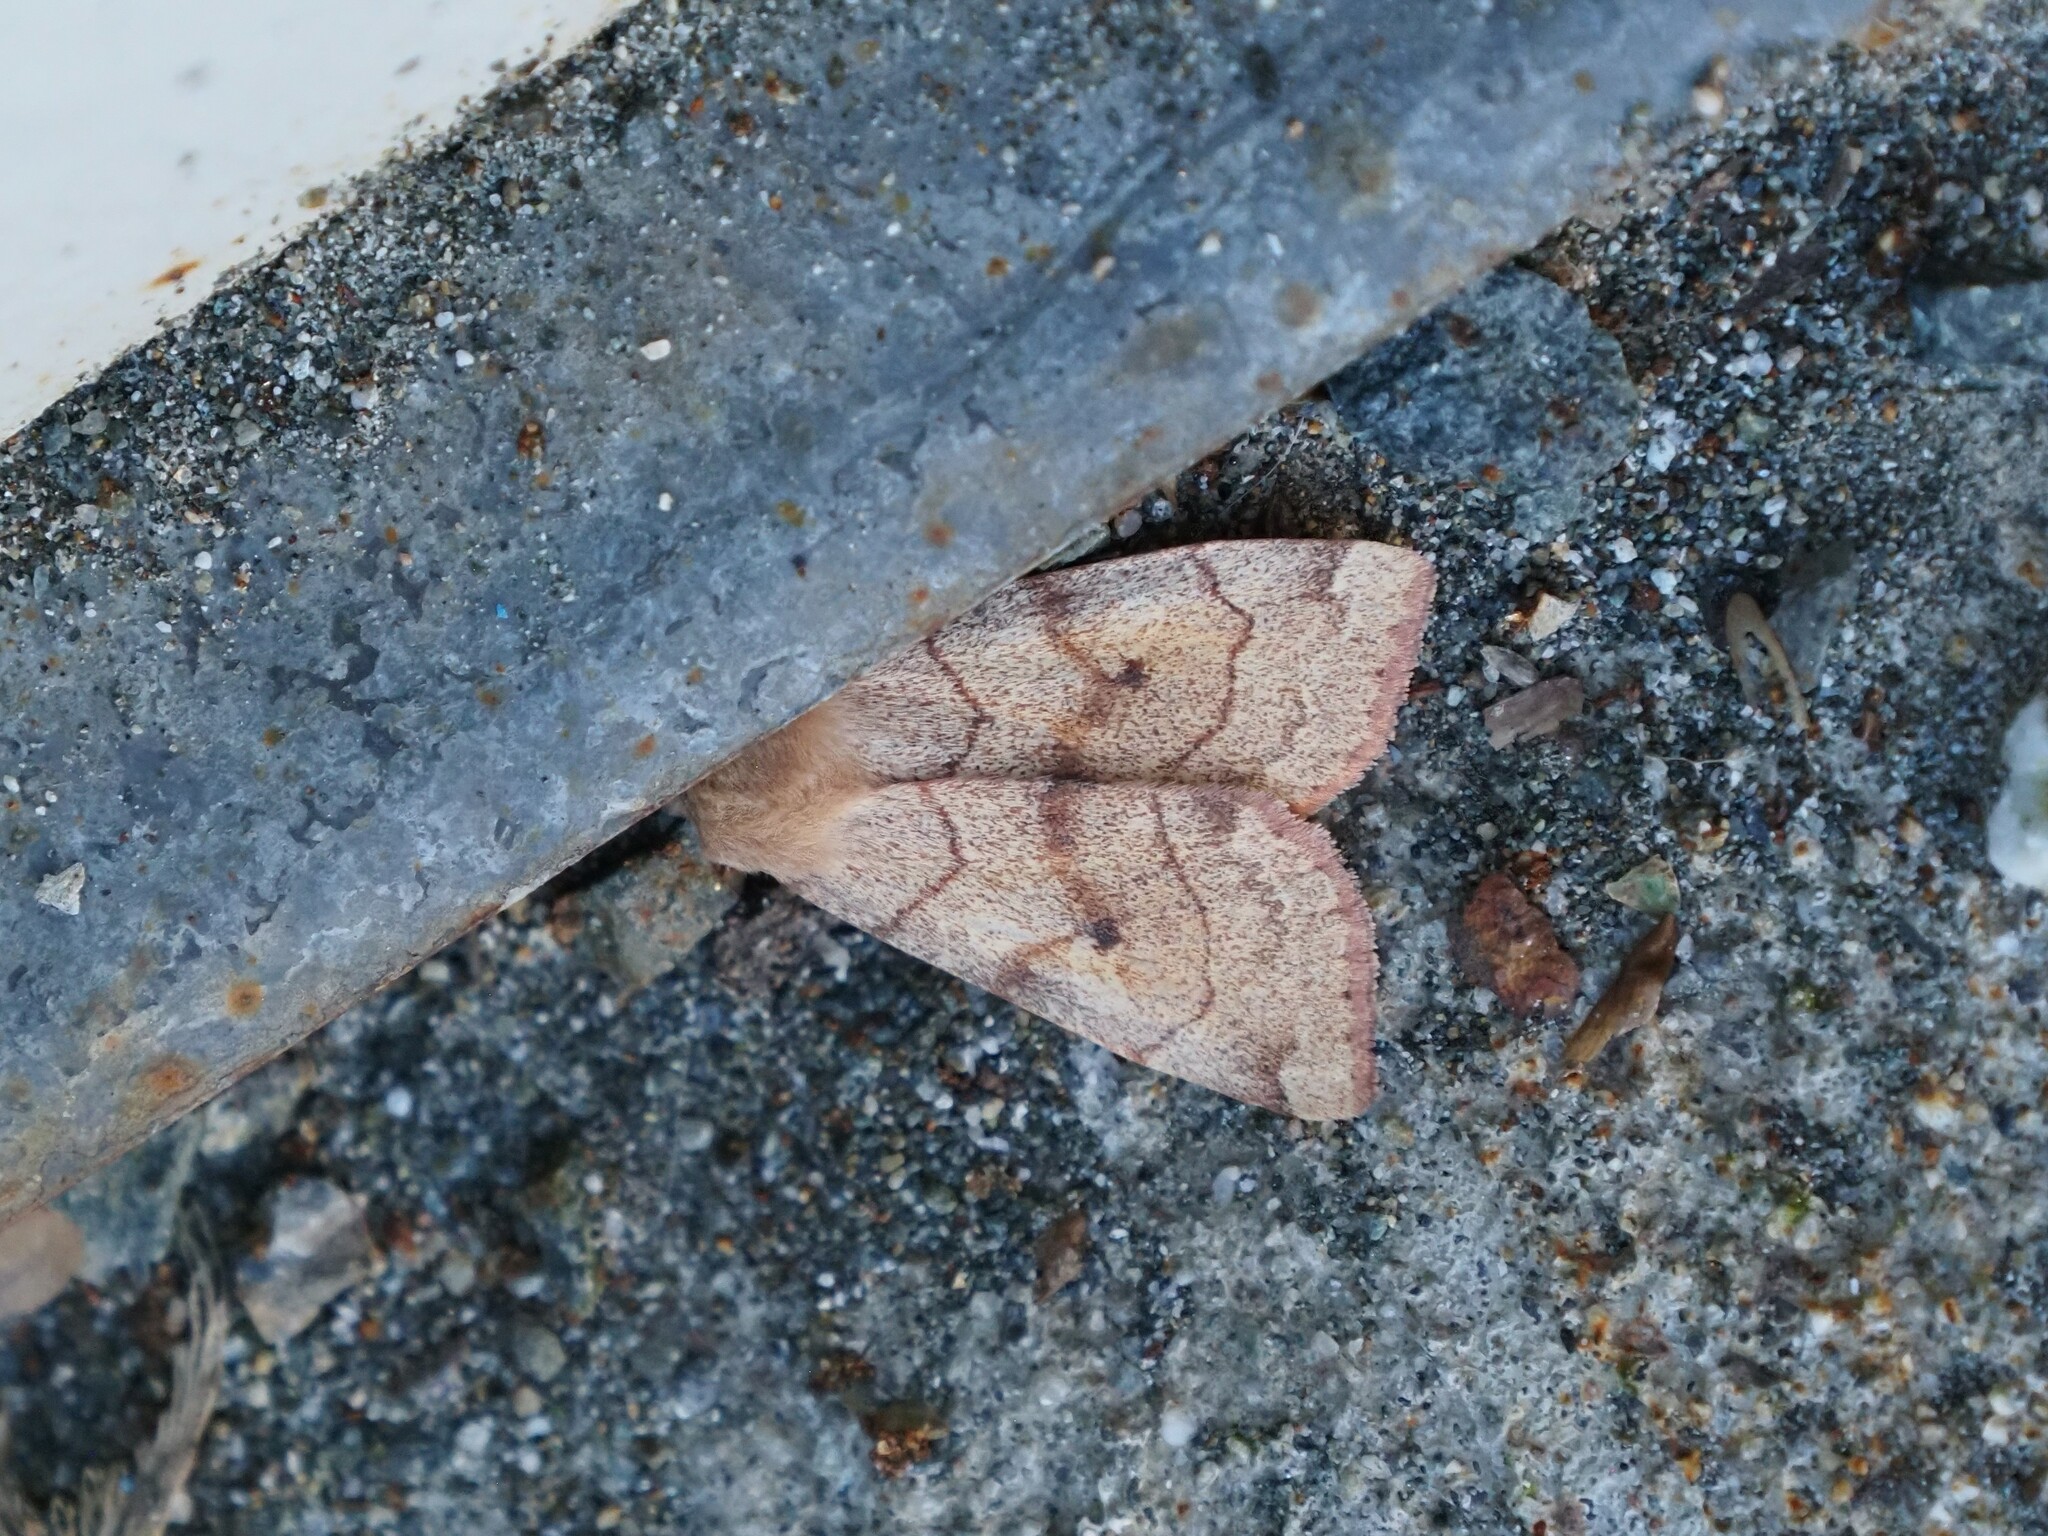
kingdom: Animalia
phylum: Arthropoda
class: Insecta
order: Lepidoptera
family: Noctuidae
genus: Enargia
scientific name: Enargia infumata
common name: Smoked sallow
